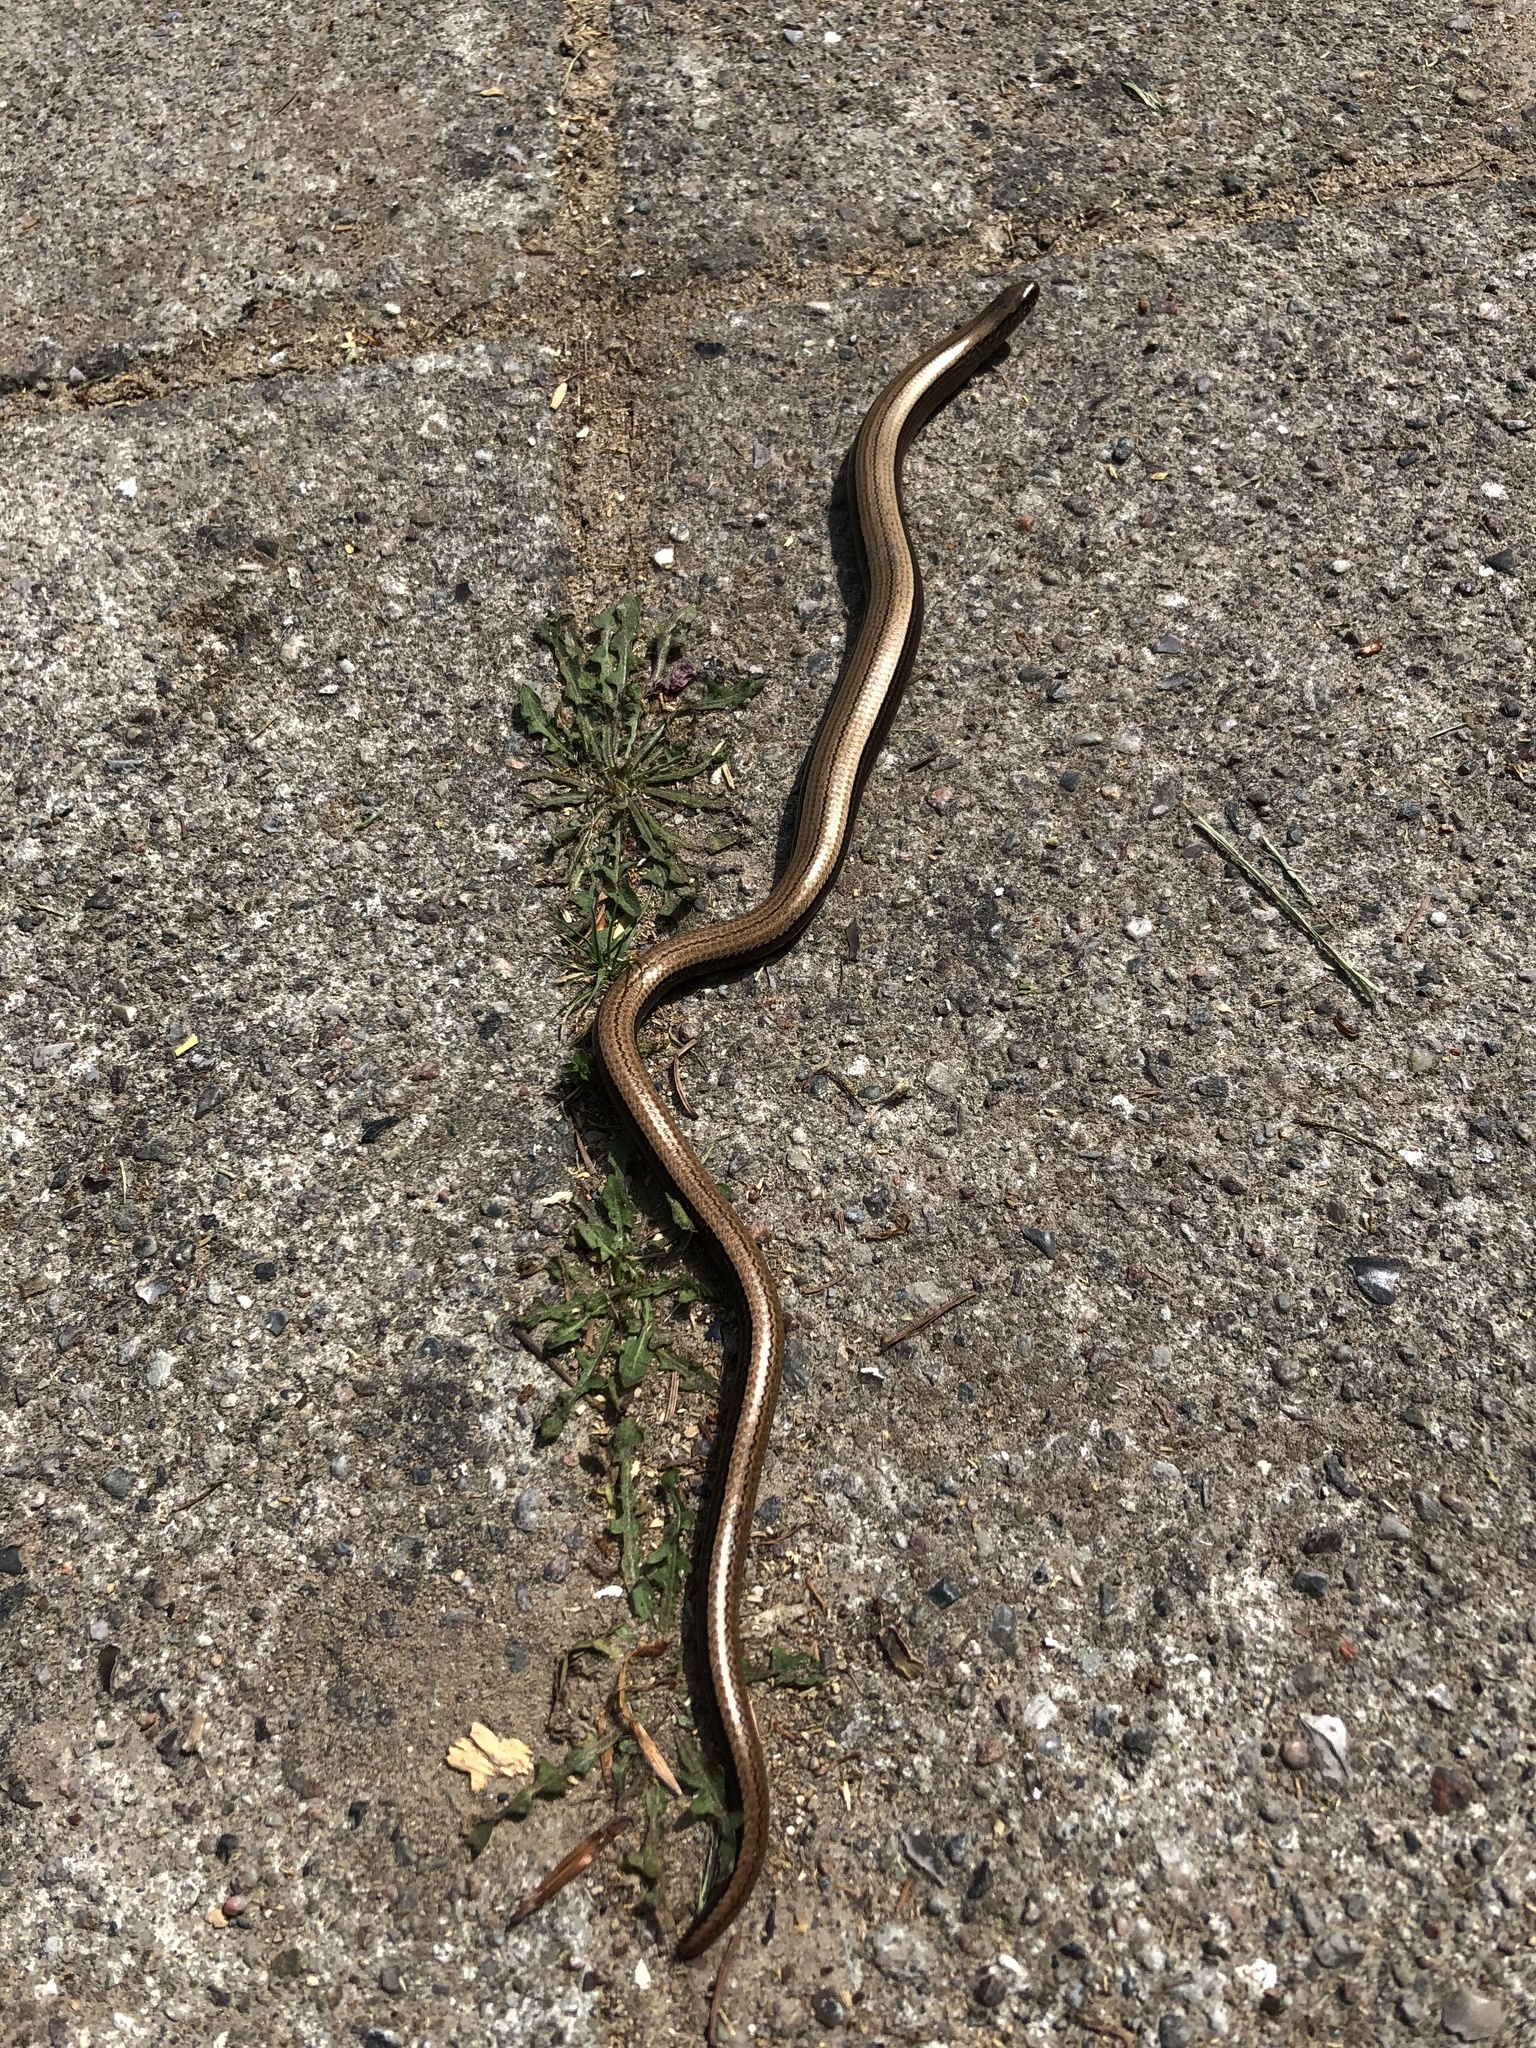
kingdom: Animalia
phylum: Chordata
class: Squamata
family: Anguidae
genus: Anguis
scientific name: Anguis fragilis
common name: Slow worm
